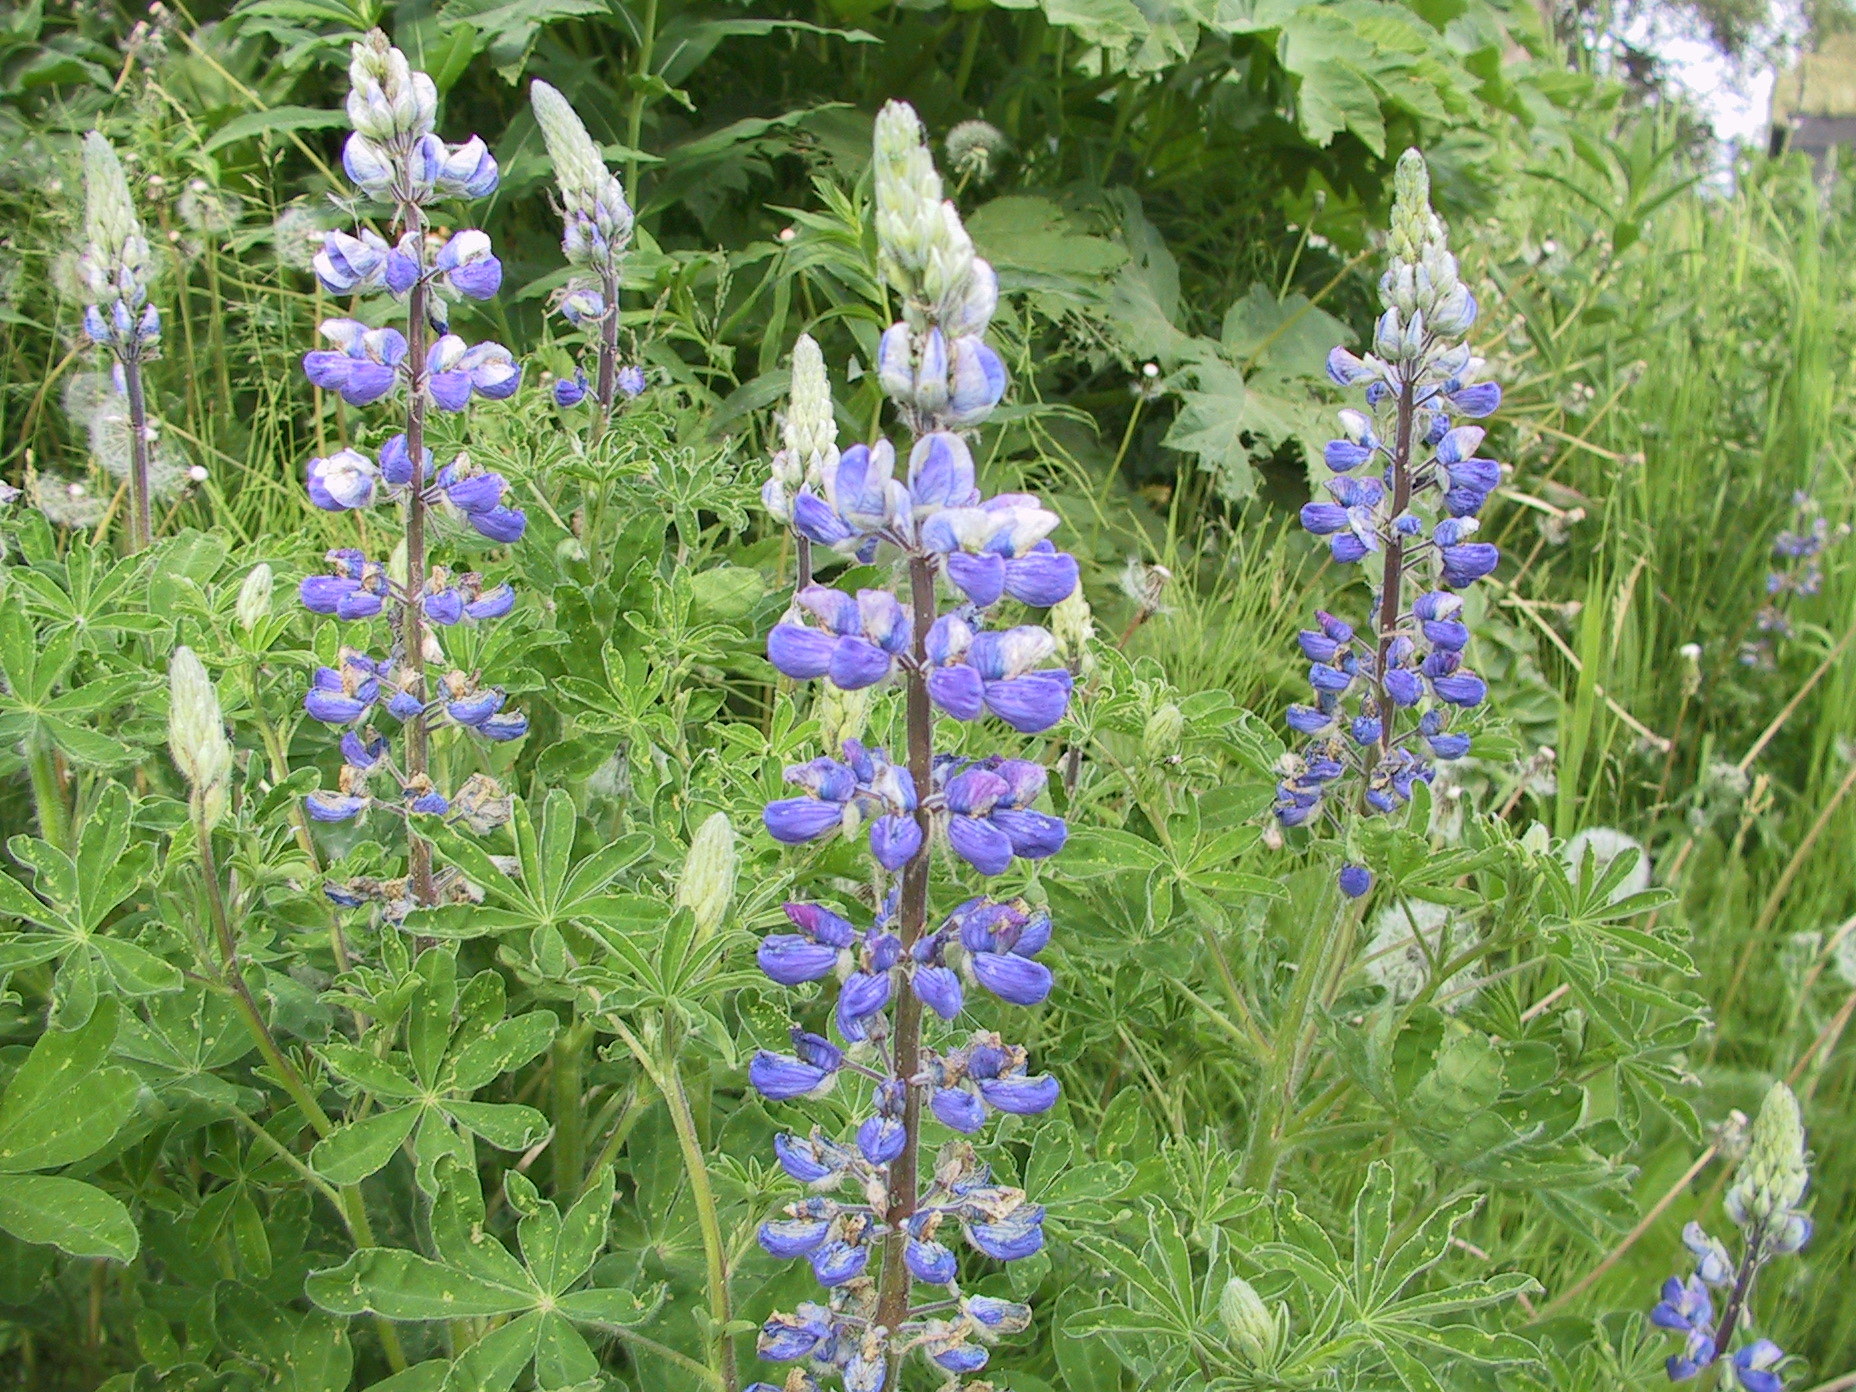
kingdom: Plantae
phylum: Tracheophyta
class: Magnoliopsida
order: Fabales
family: Fabaceae
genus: Lupinus
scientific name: Lupinus nootkatensis
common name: Nootka lupine
